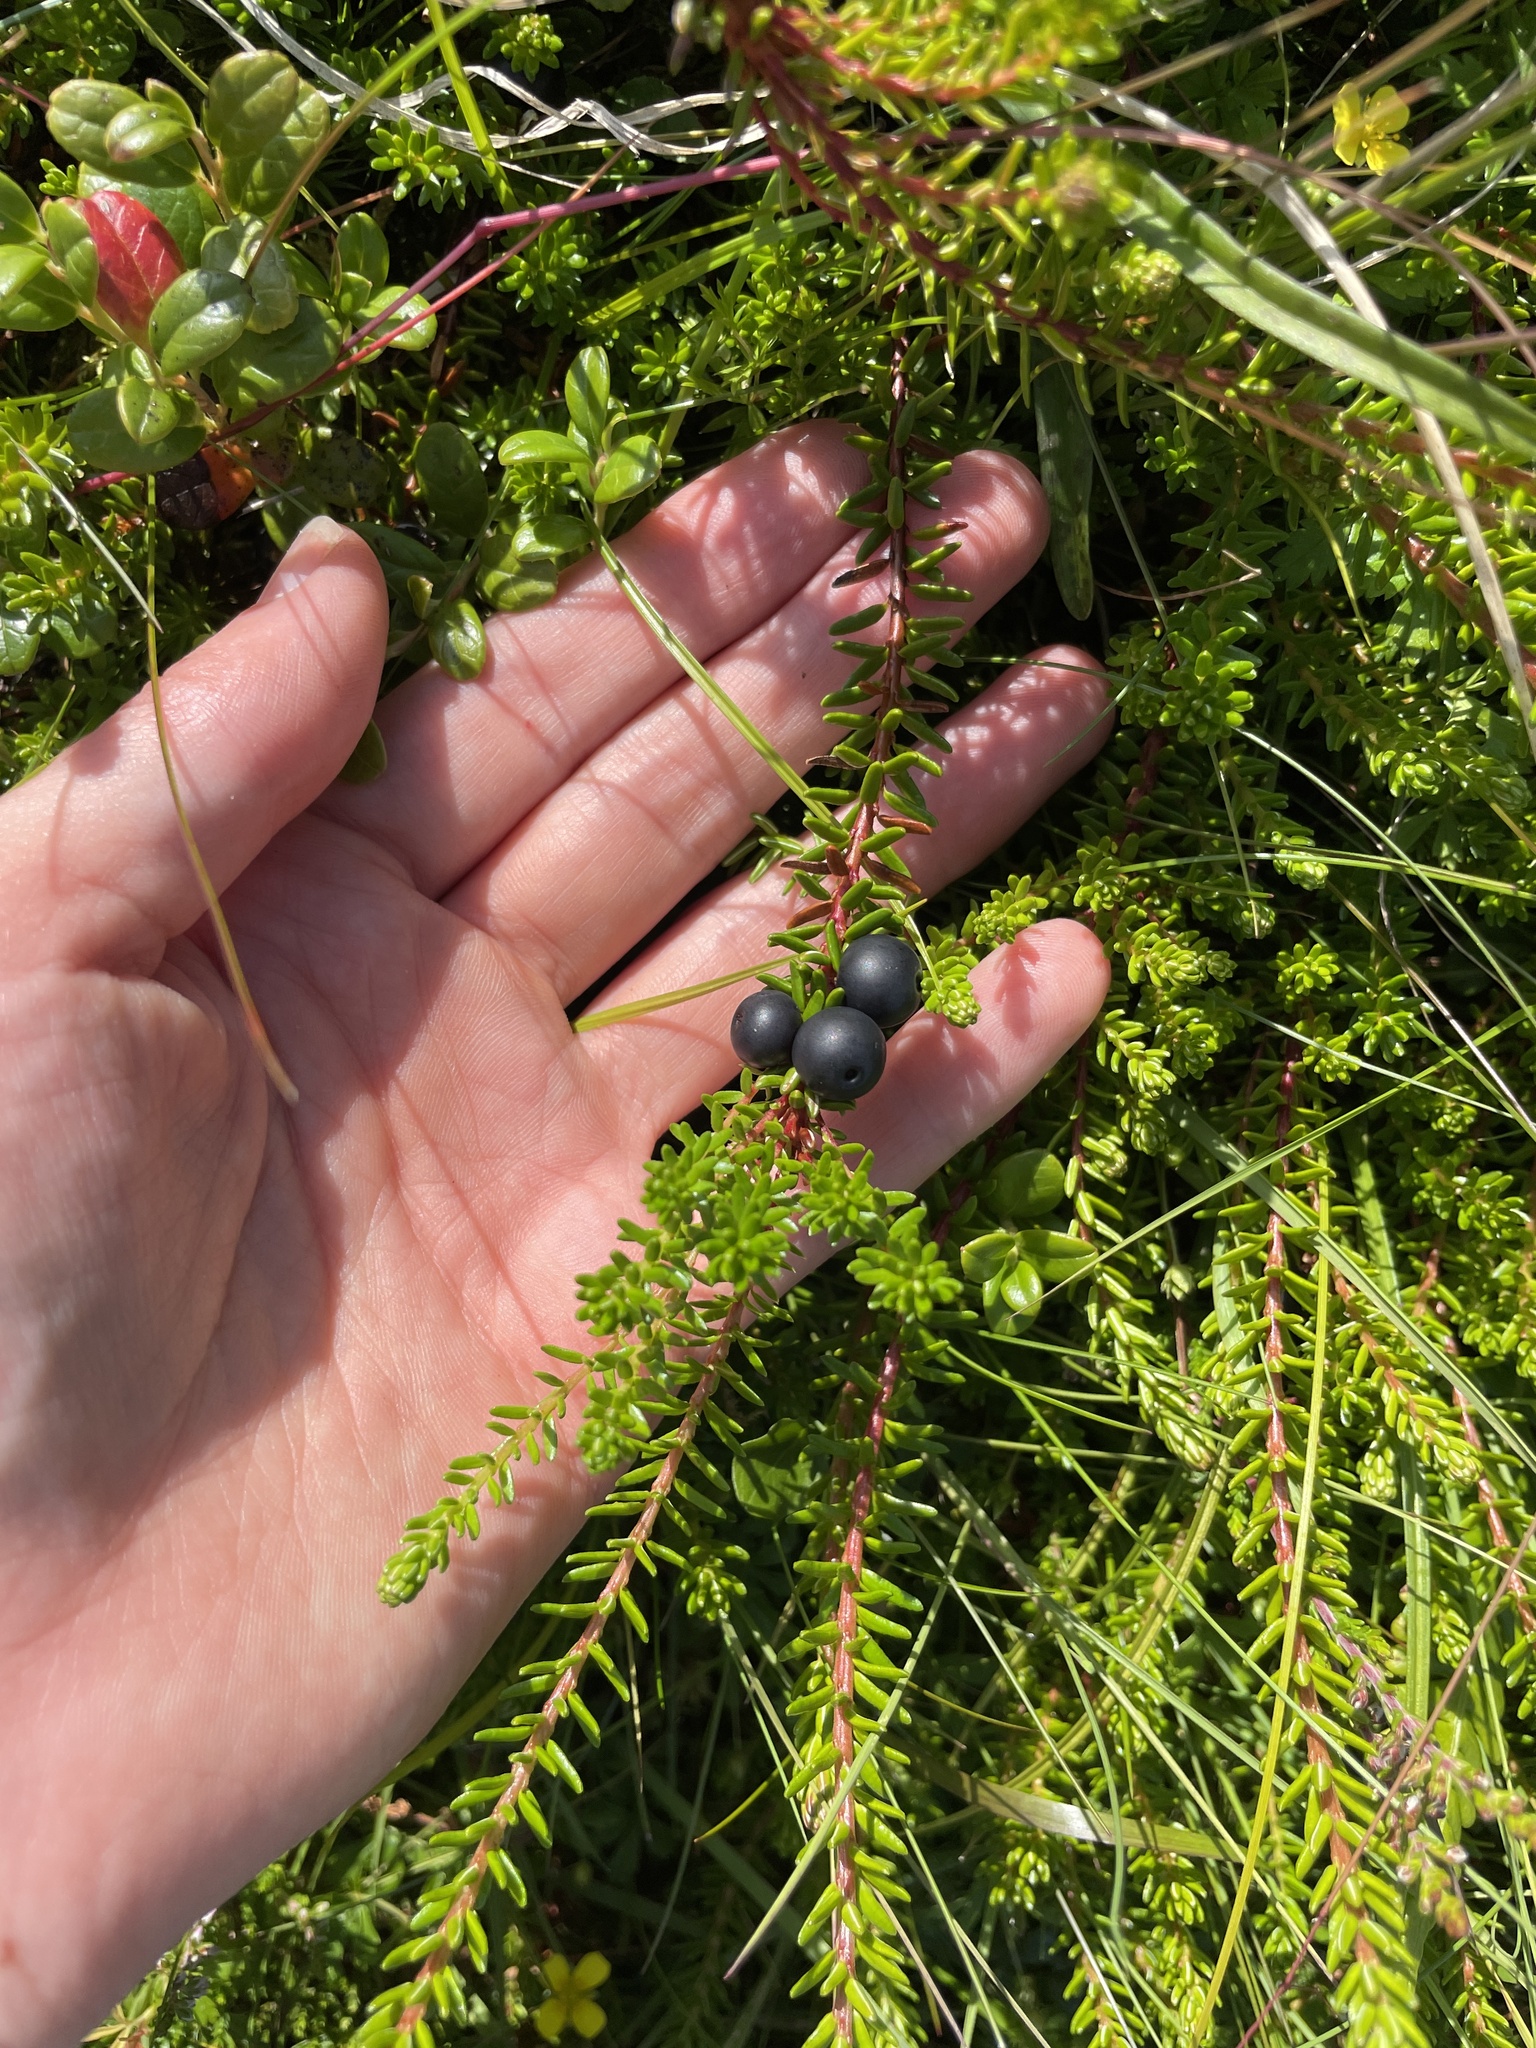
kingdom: Plantae
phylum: Tracheophyta
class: Magnoliopsida
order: Ericales
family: Ericaceae
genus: Empetrum
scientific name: Empetrum nigrum
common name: Black crowberry
